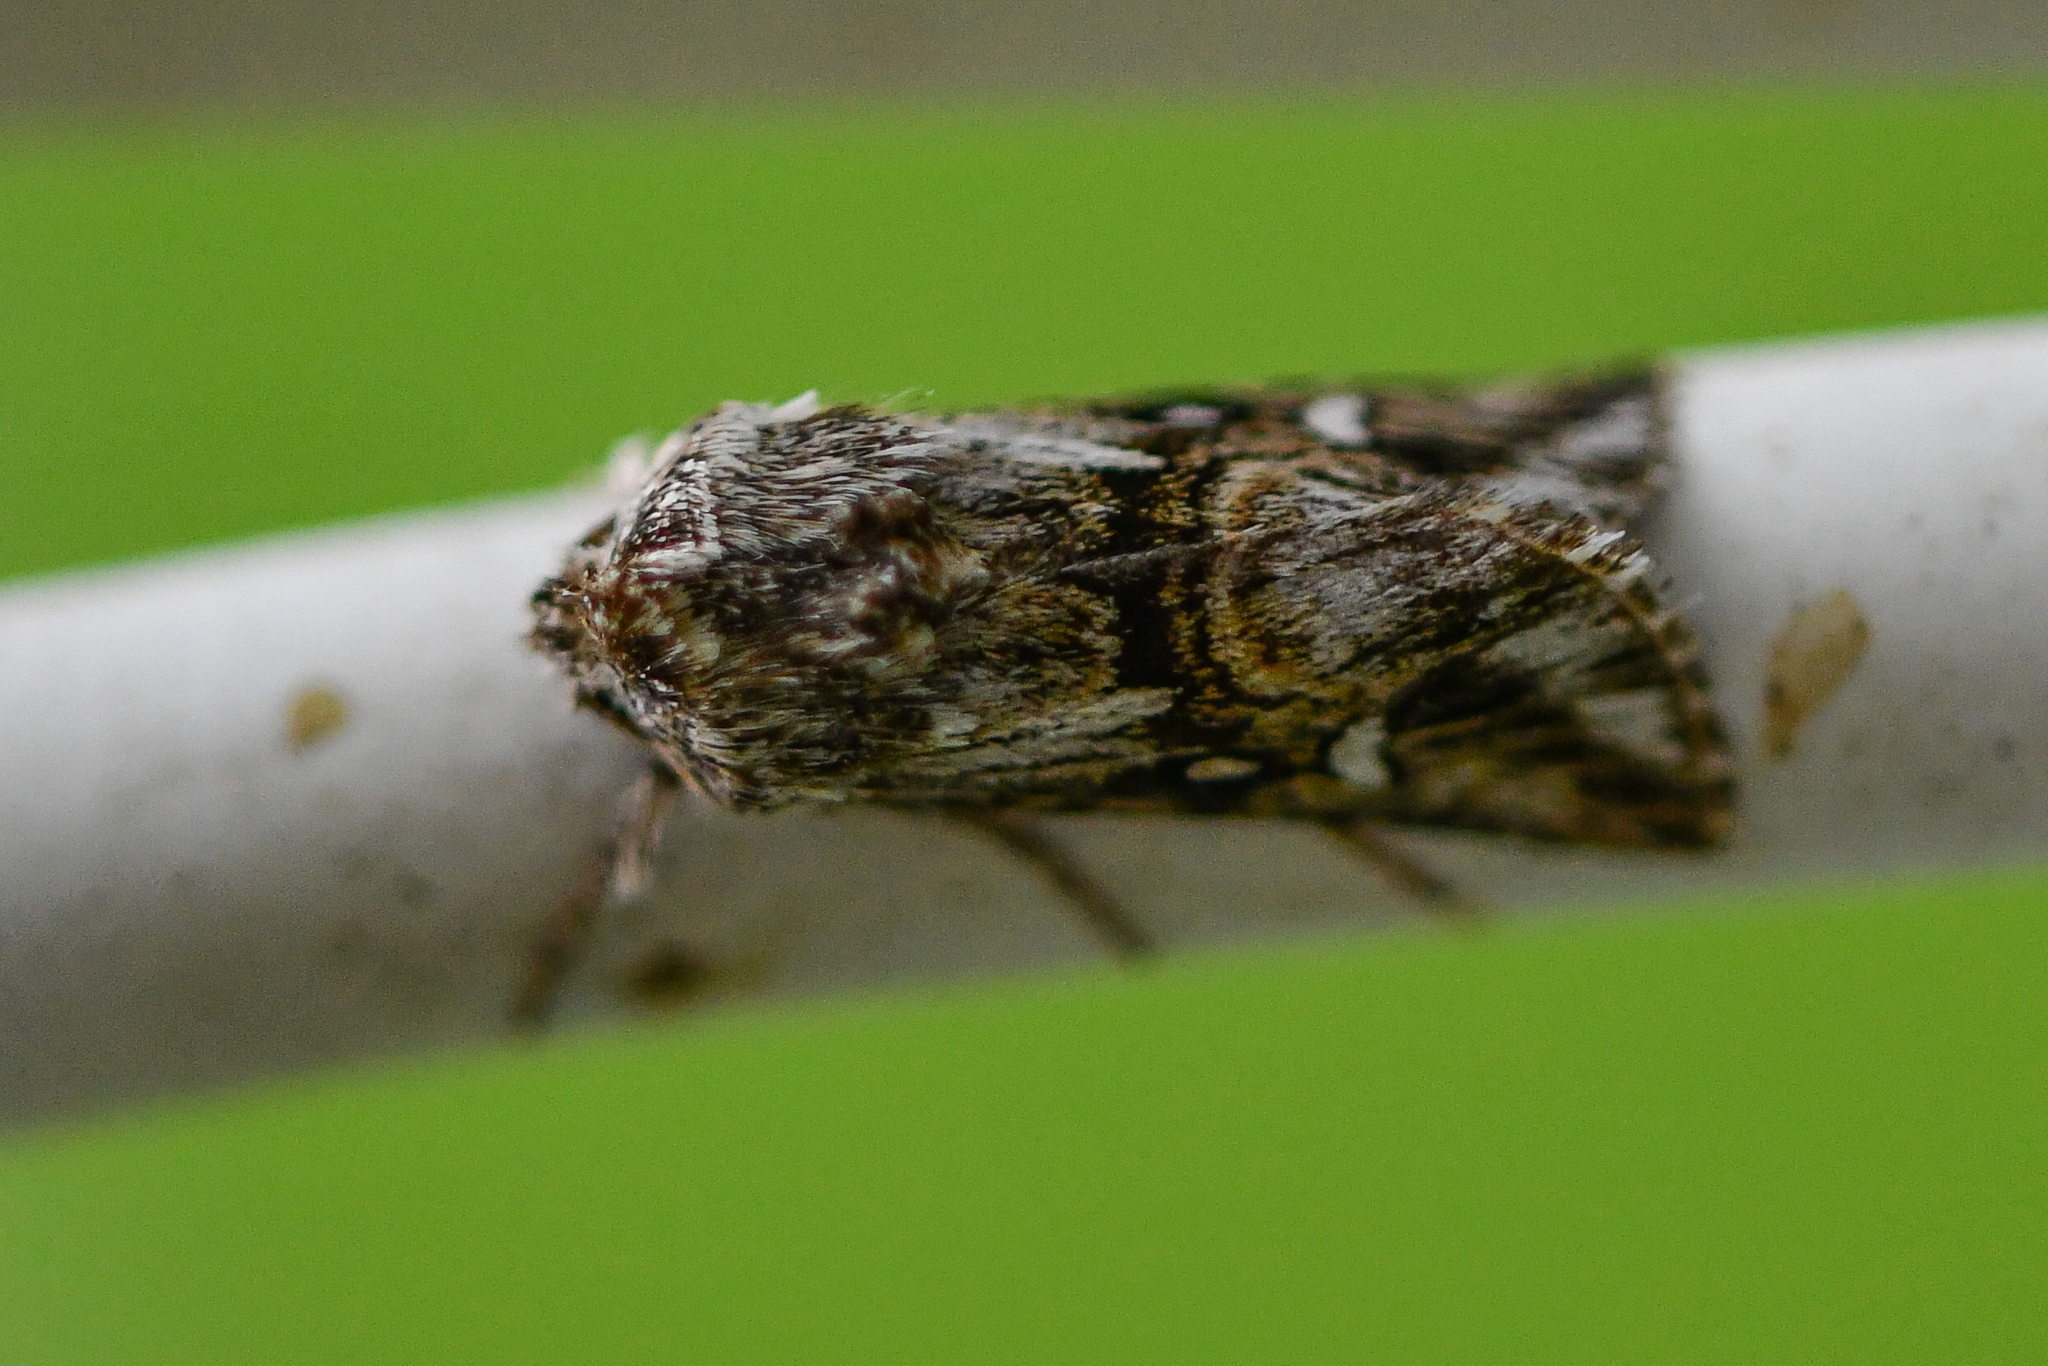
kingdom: Animalia
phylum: Arthropoda
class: Insecta
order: Lepidoptera
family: Noctuidae
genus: Calophasia
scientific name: Calophasia lunula
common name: Toadflax brocade
